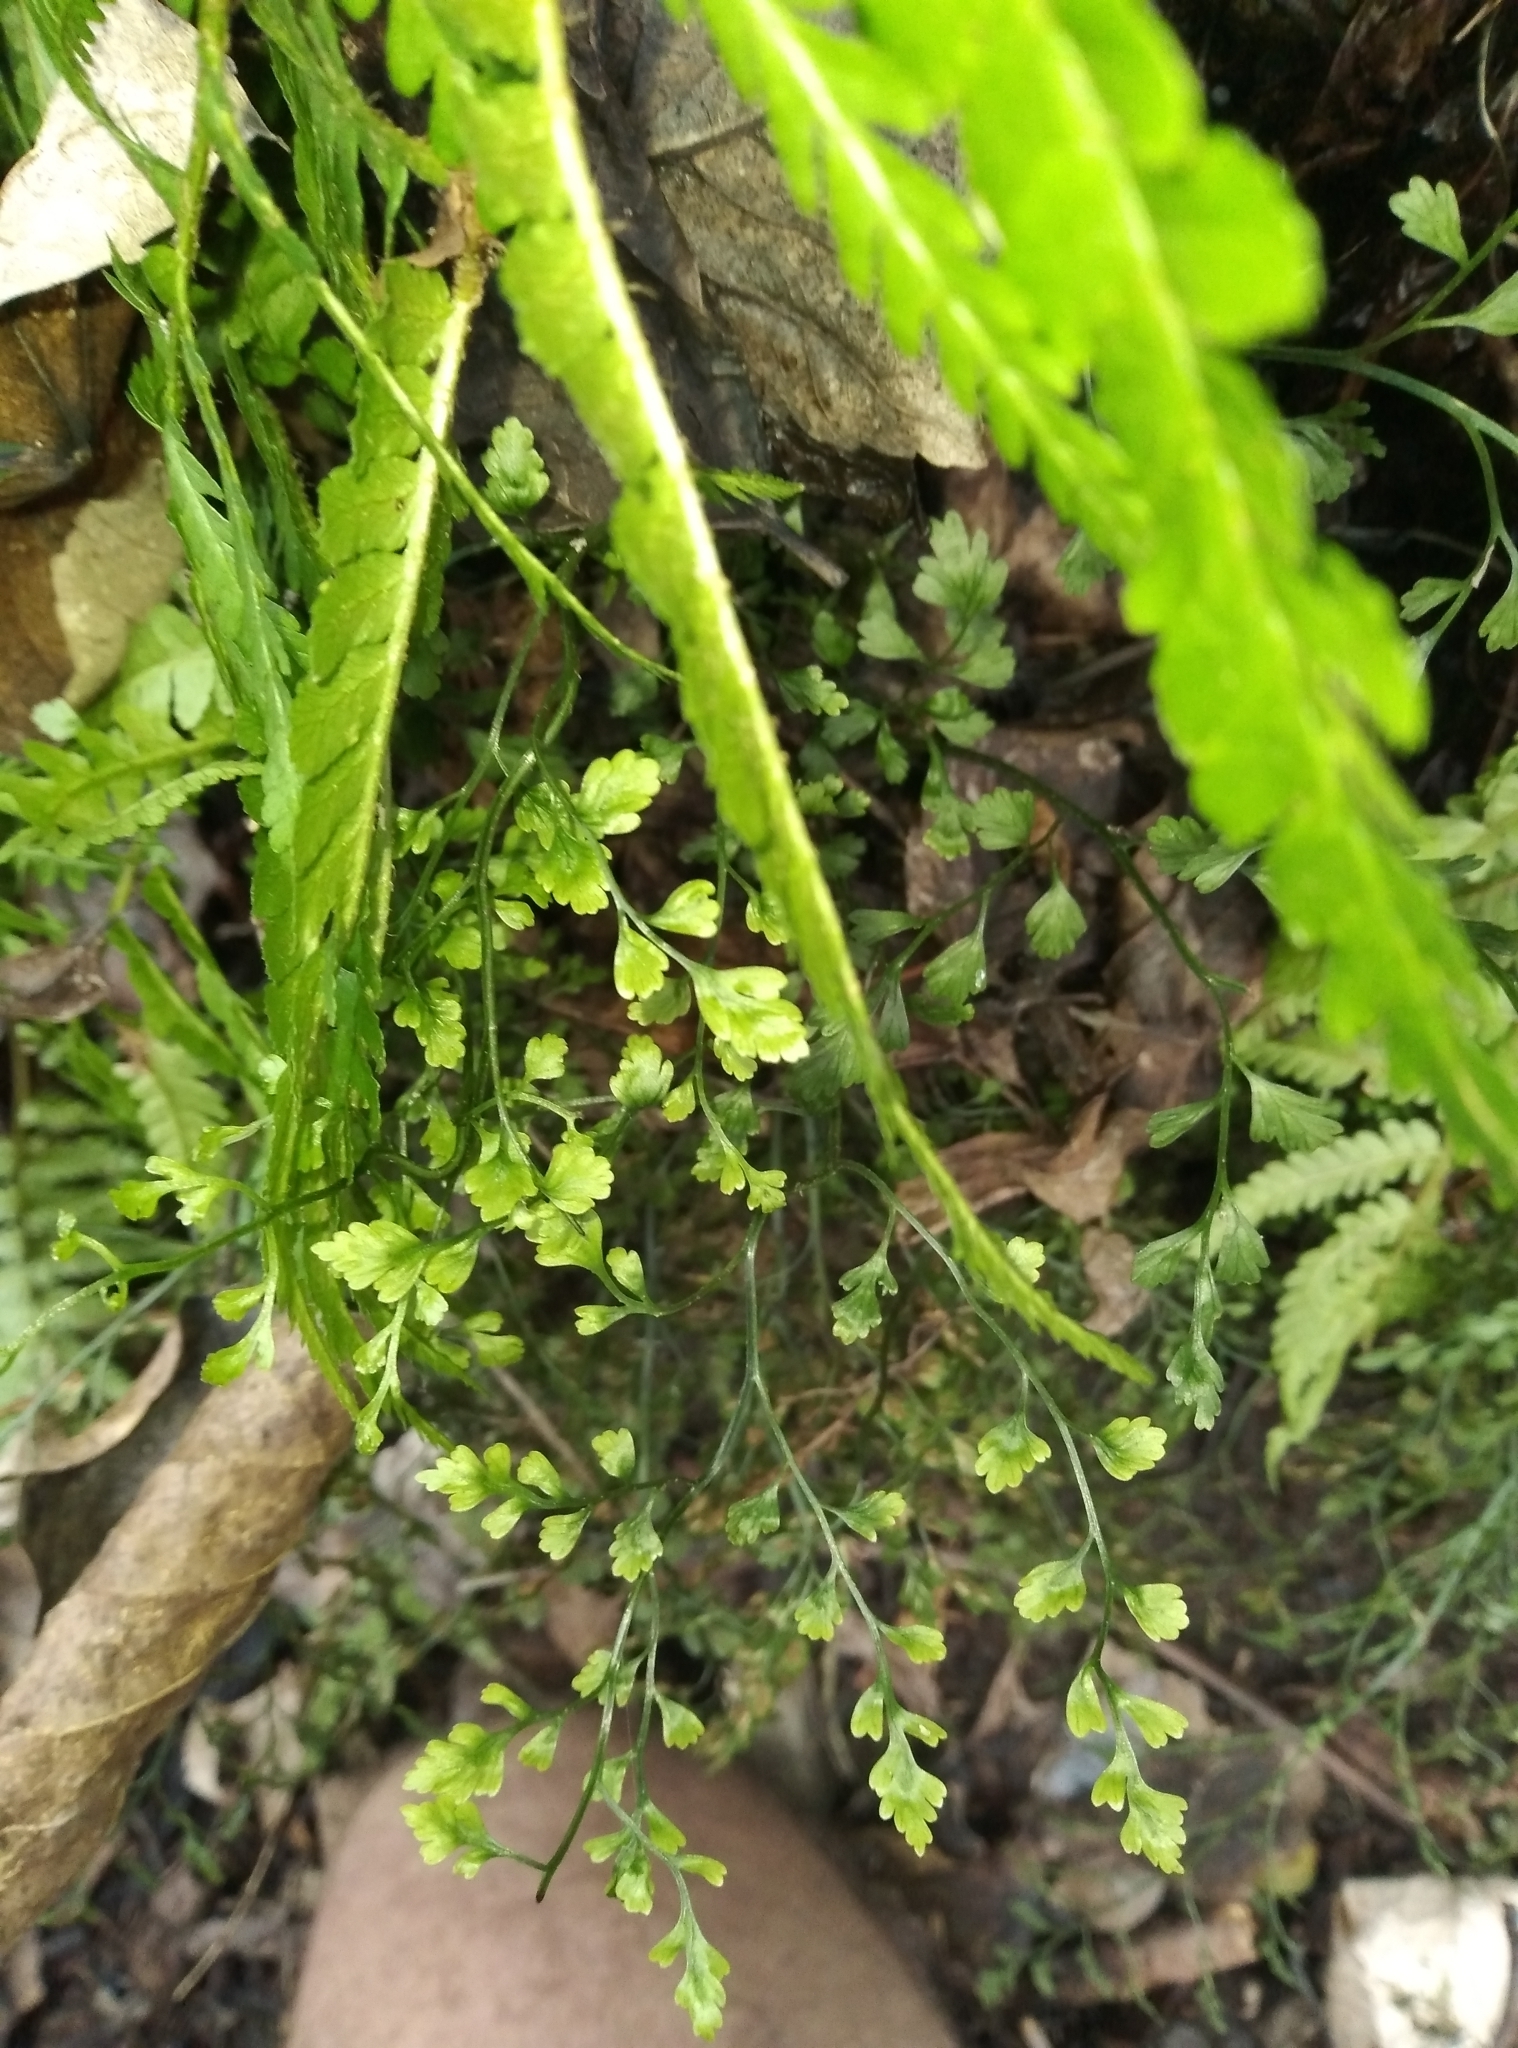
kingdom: Plantae
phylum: Tracheophyta
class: Polypodiopsida
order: Polypodiales
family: Aspleniaceae
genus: Asplenium
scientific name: Asplenium hookerianum
